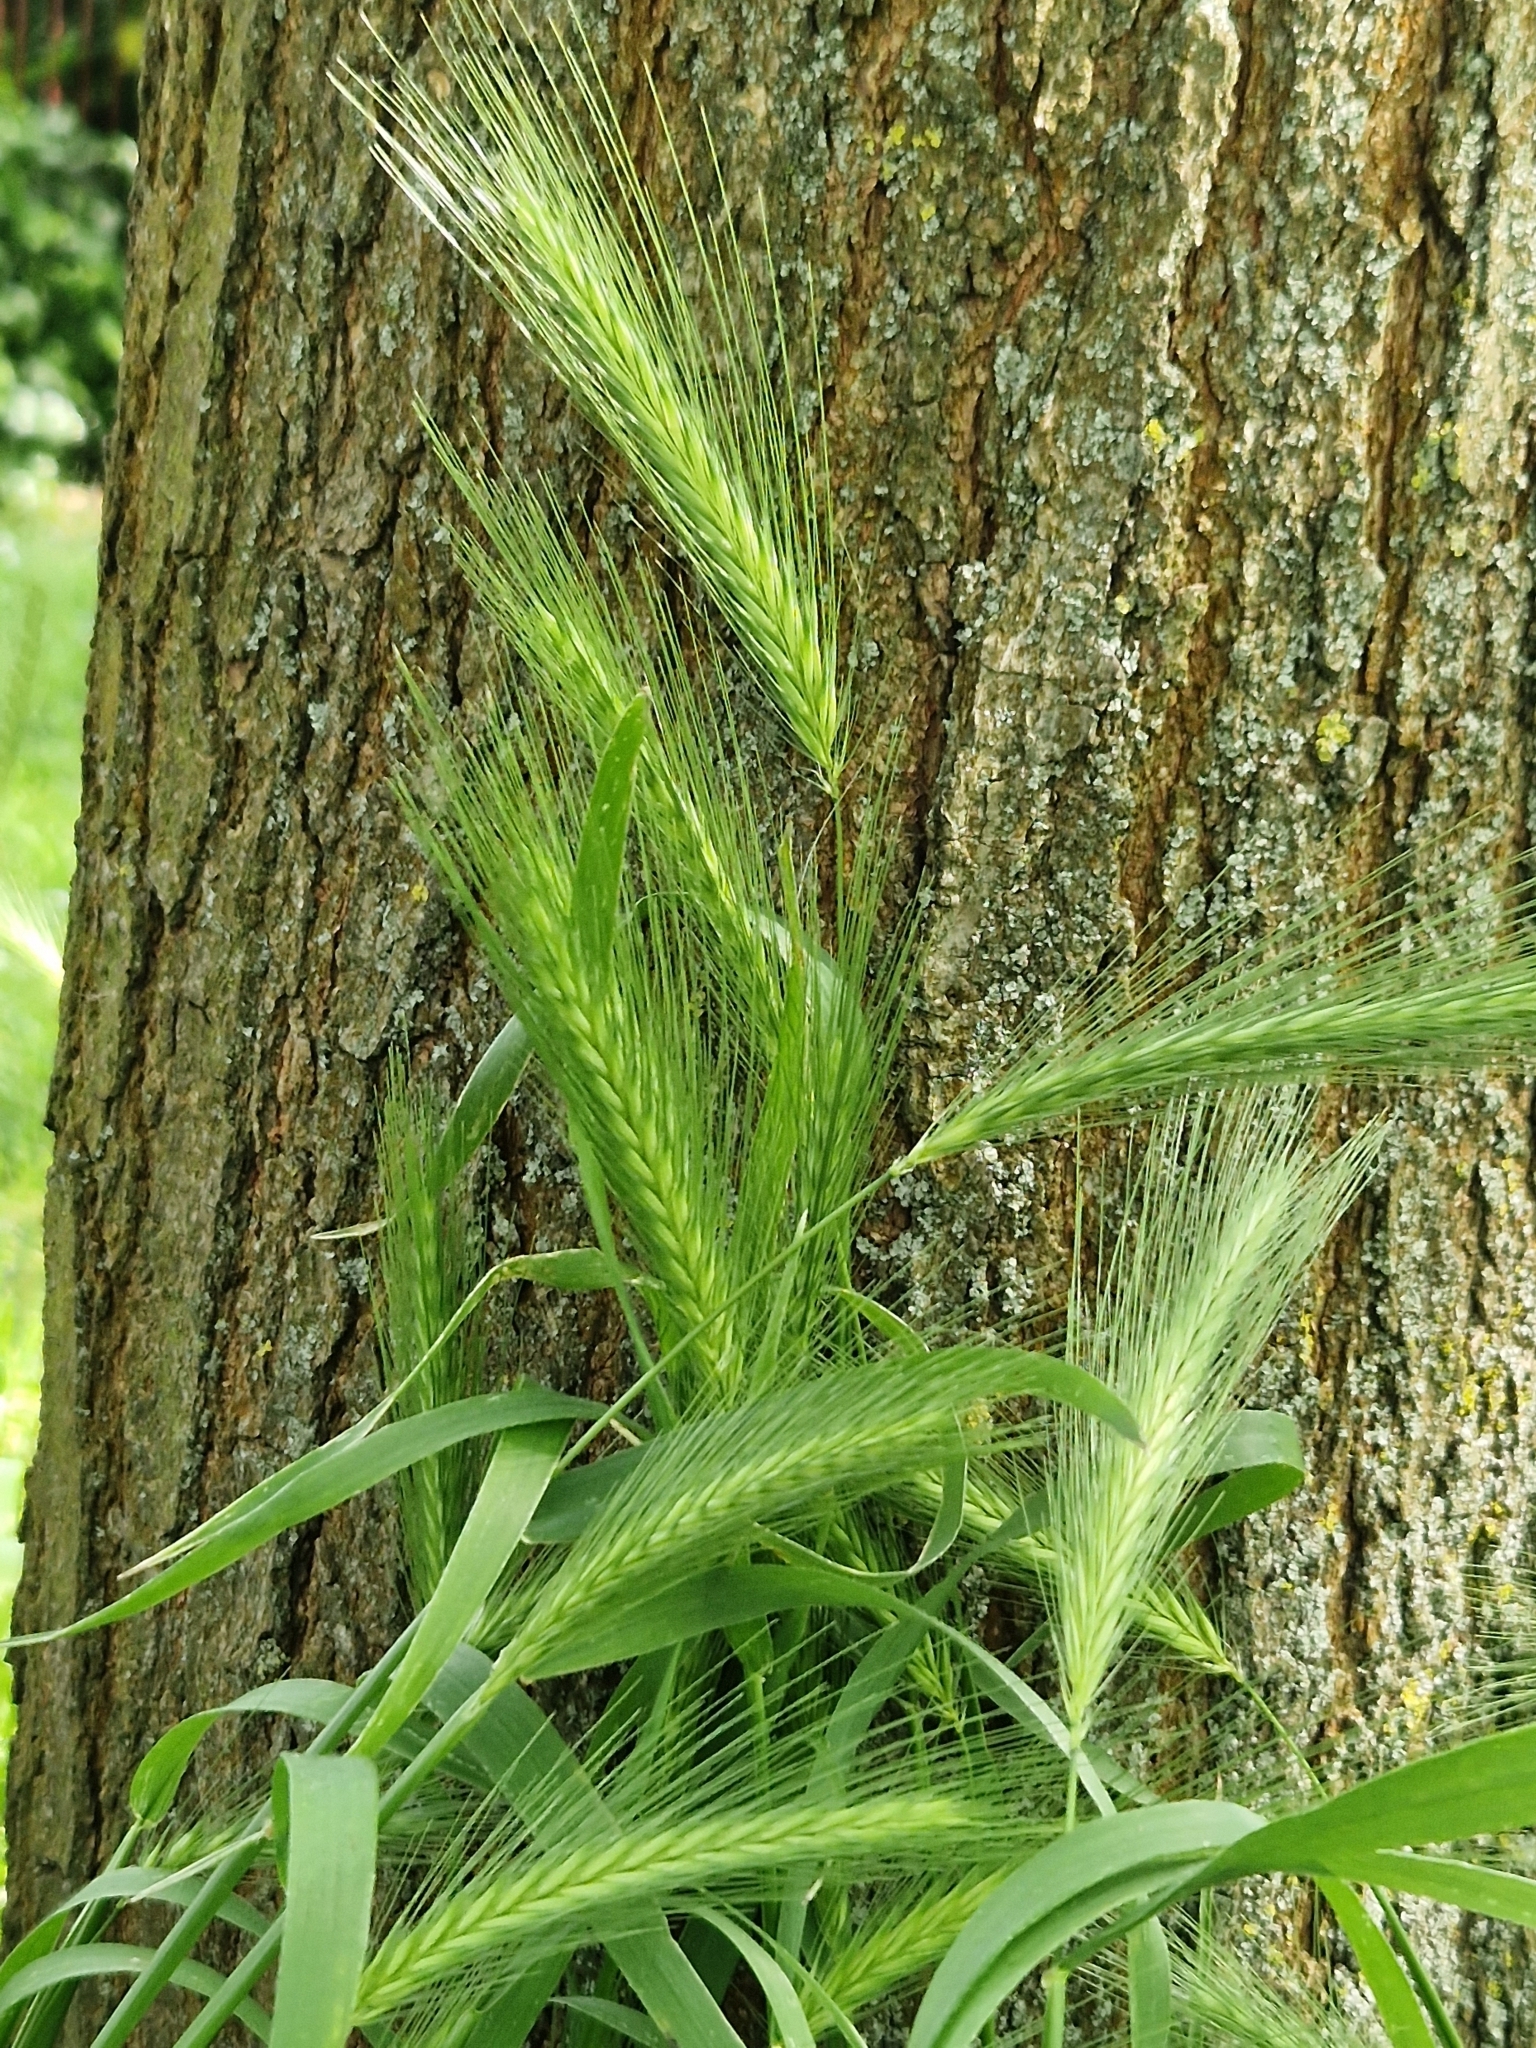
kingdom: Plantae
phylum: Tracheophyta
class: Liliopsida
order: Poales
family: Poaceae
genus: Hordeum
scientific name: Hordeum murinum
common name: Wall barley
